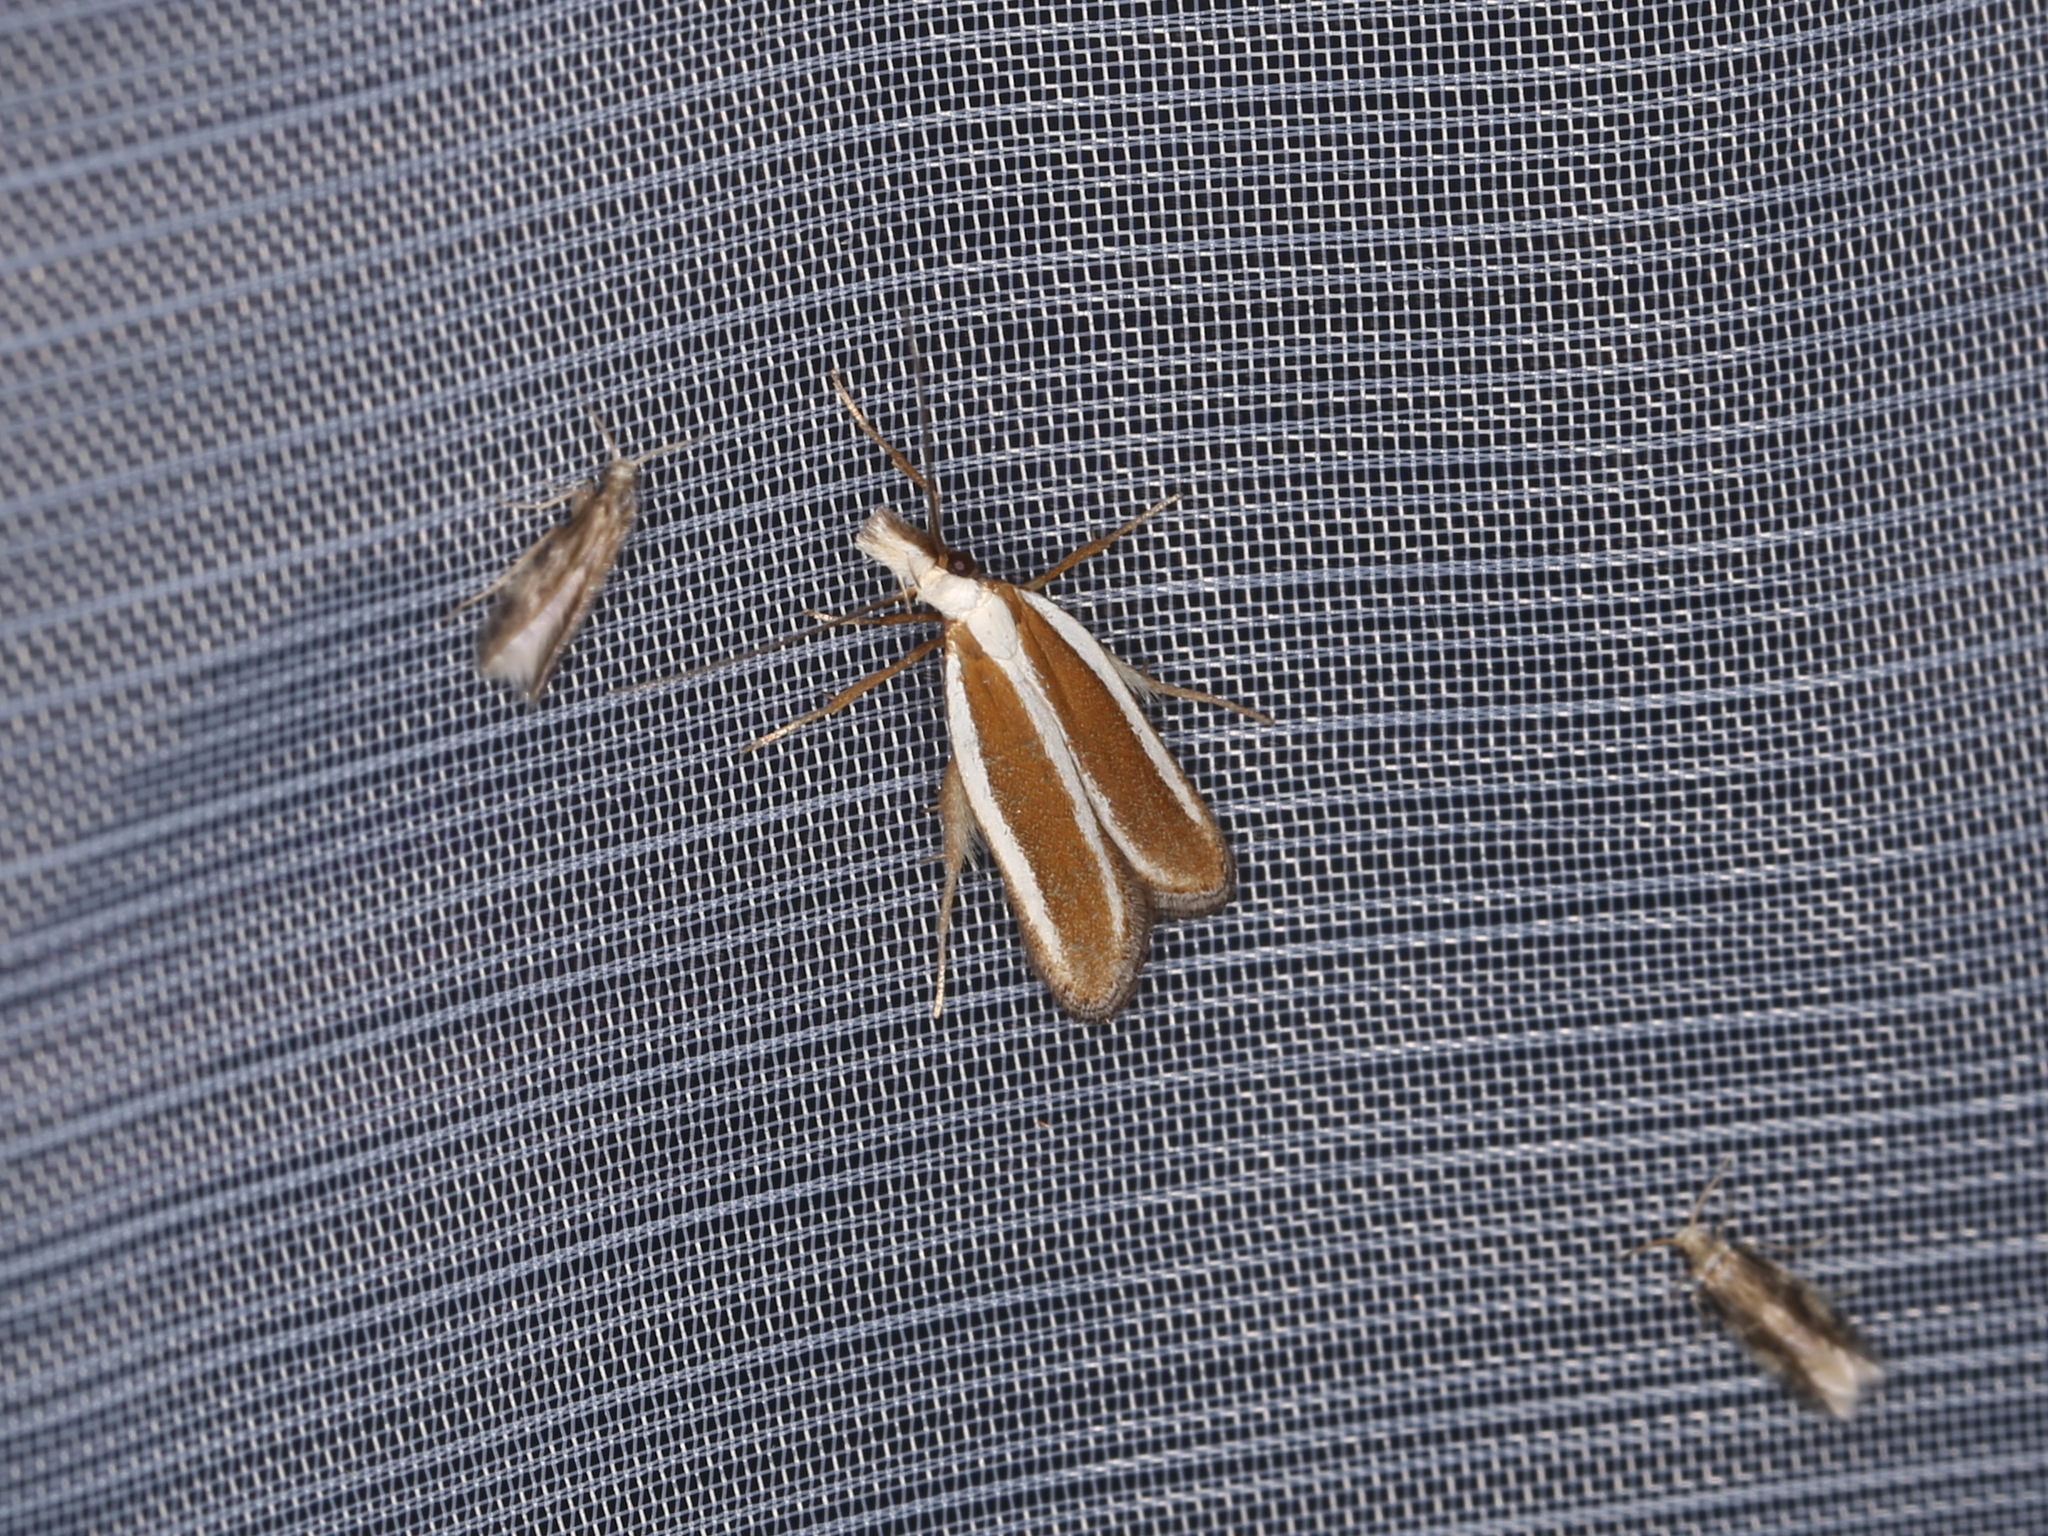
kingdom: Animalia
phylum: Arthropoda
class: Insecta
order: Lepidoptera
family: Gelechiidae
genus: Dichomeris
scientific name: Dichomeris marginella
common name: Juniper webworm
